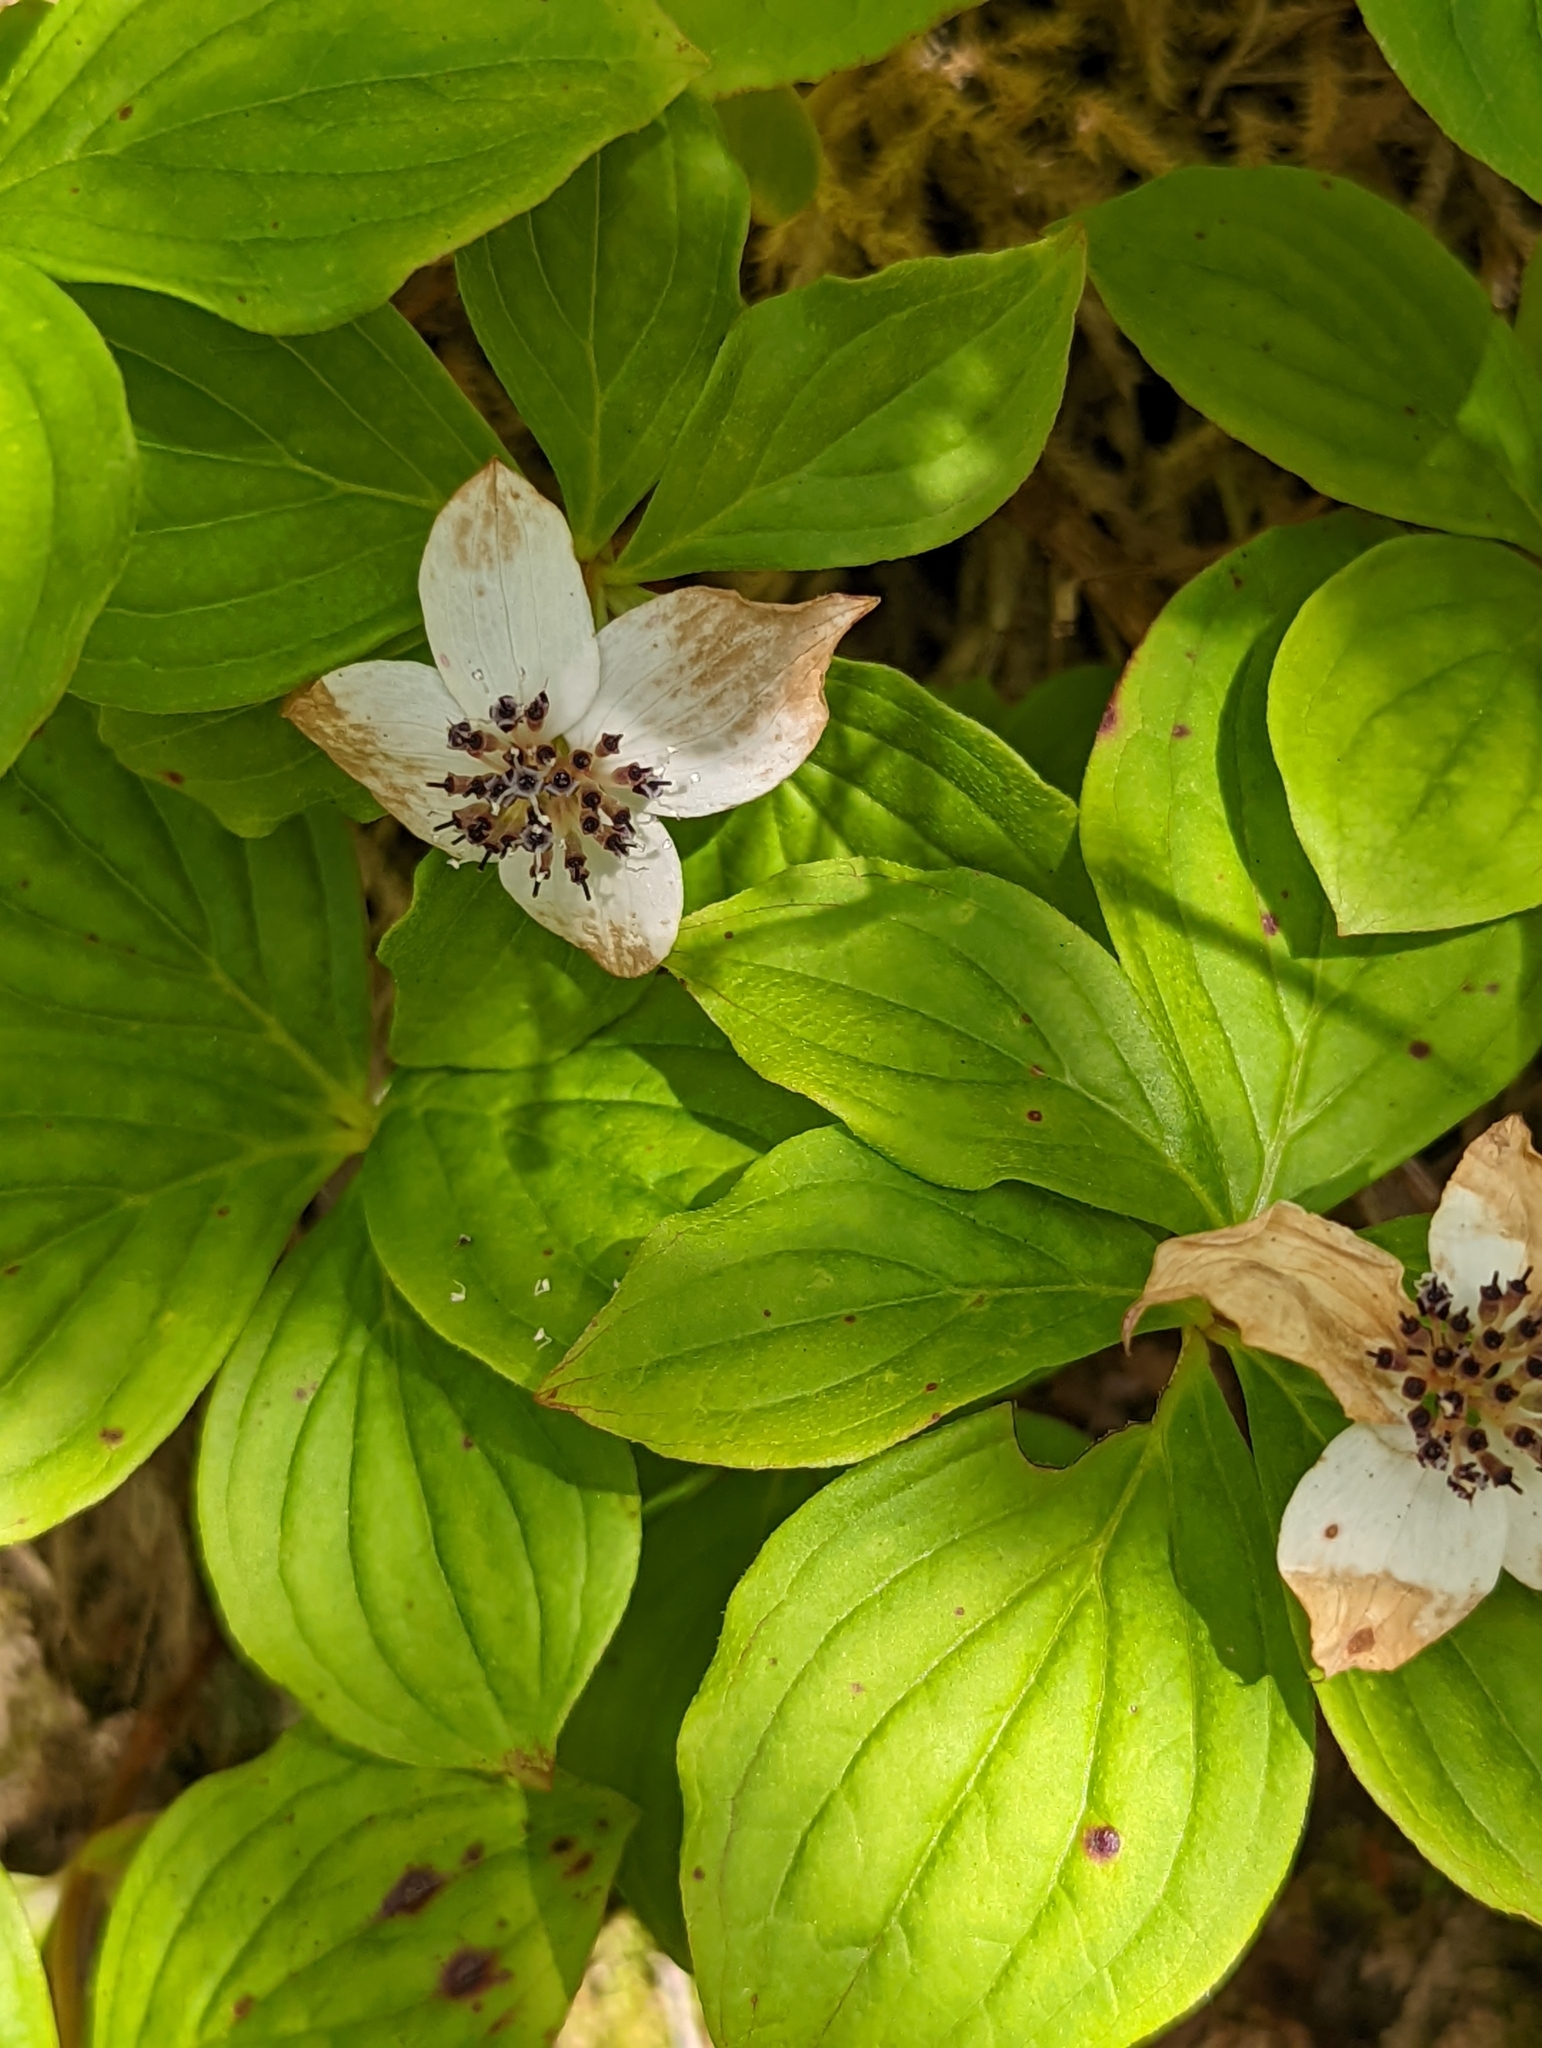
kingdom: Plantae
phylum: Tracheophyta
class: Magnoliopsida
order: Cornales
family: Cornaceae
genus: Cornus
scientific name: Cornus unalaschkensis
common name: Alaska bunchberry
